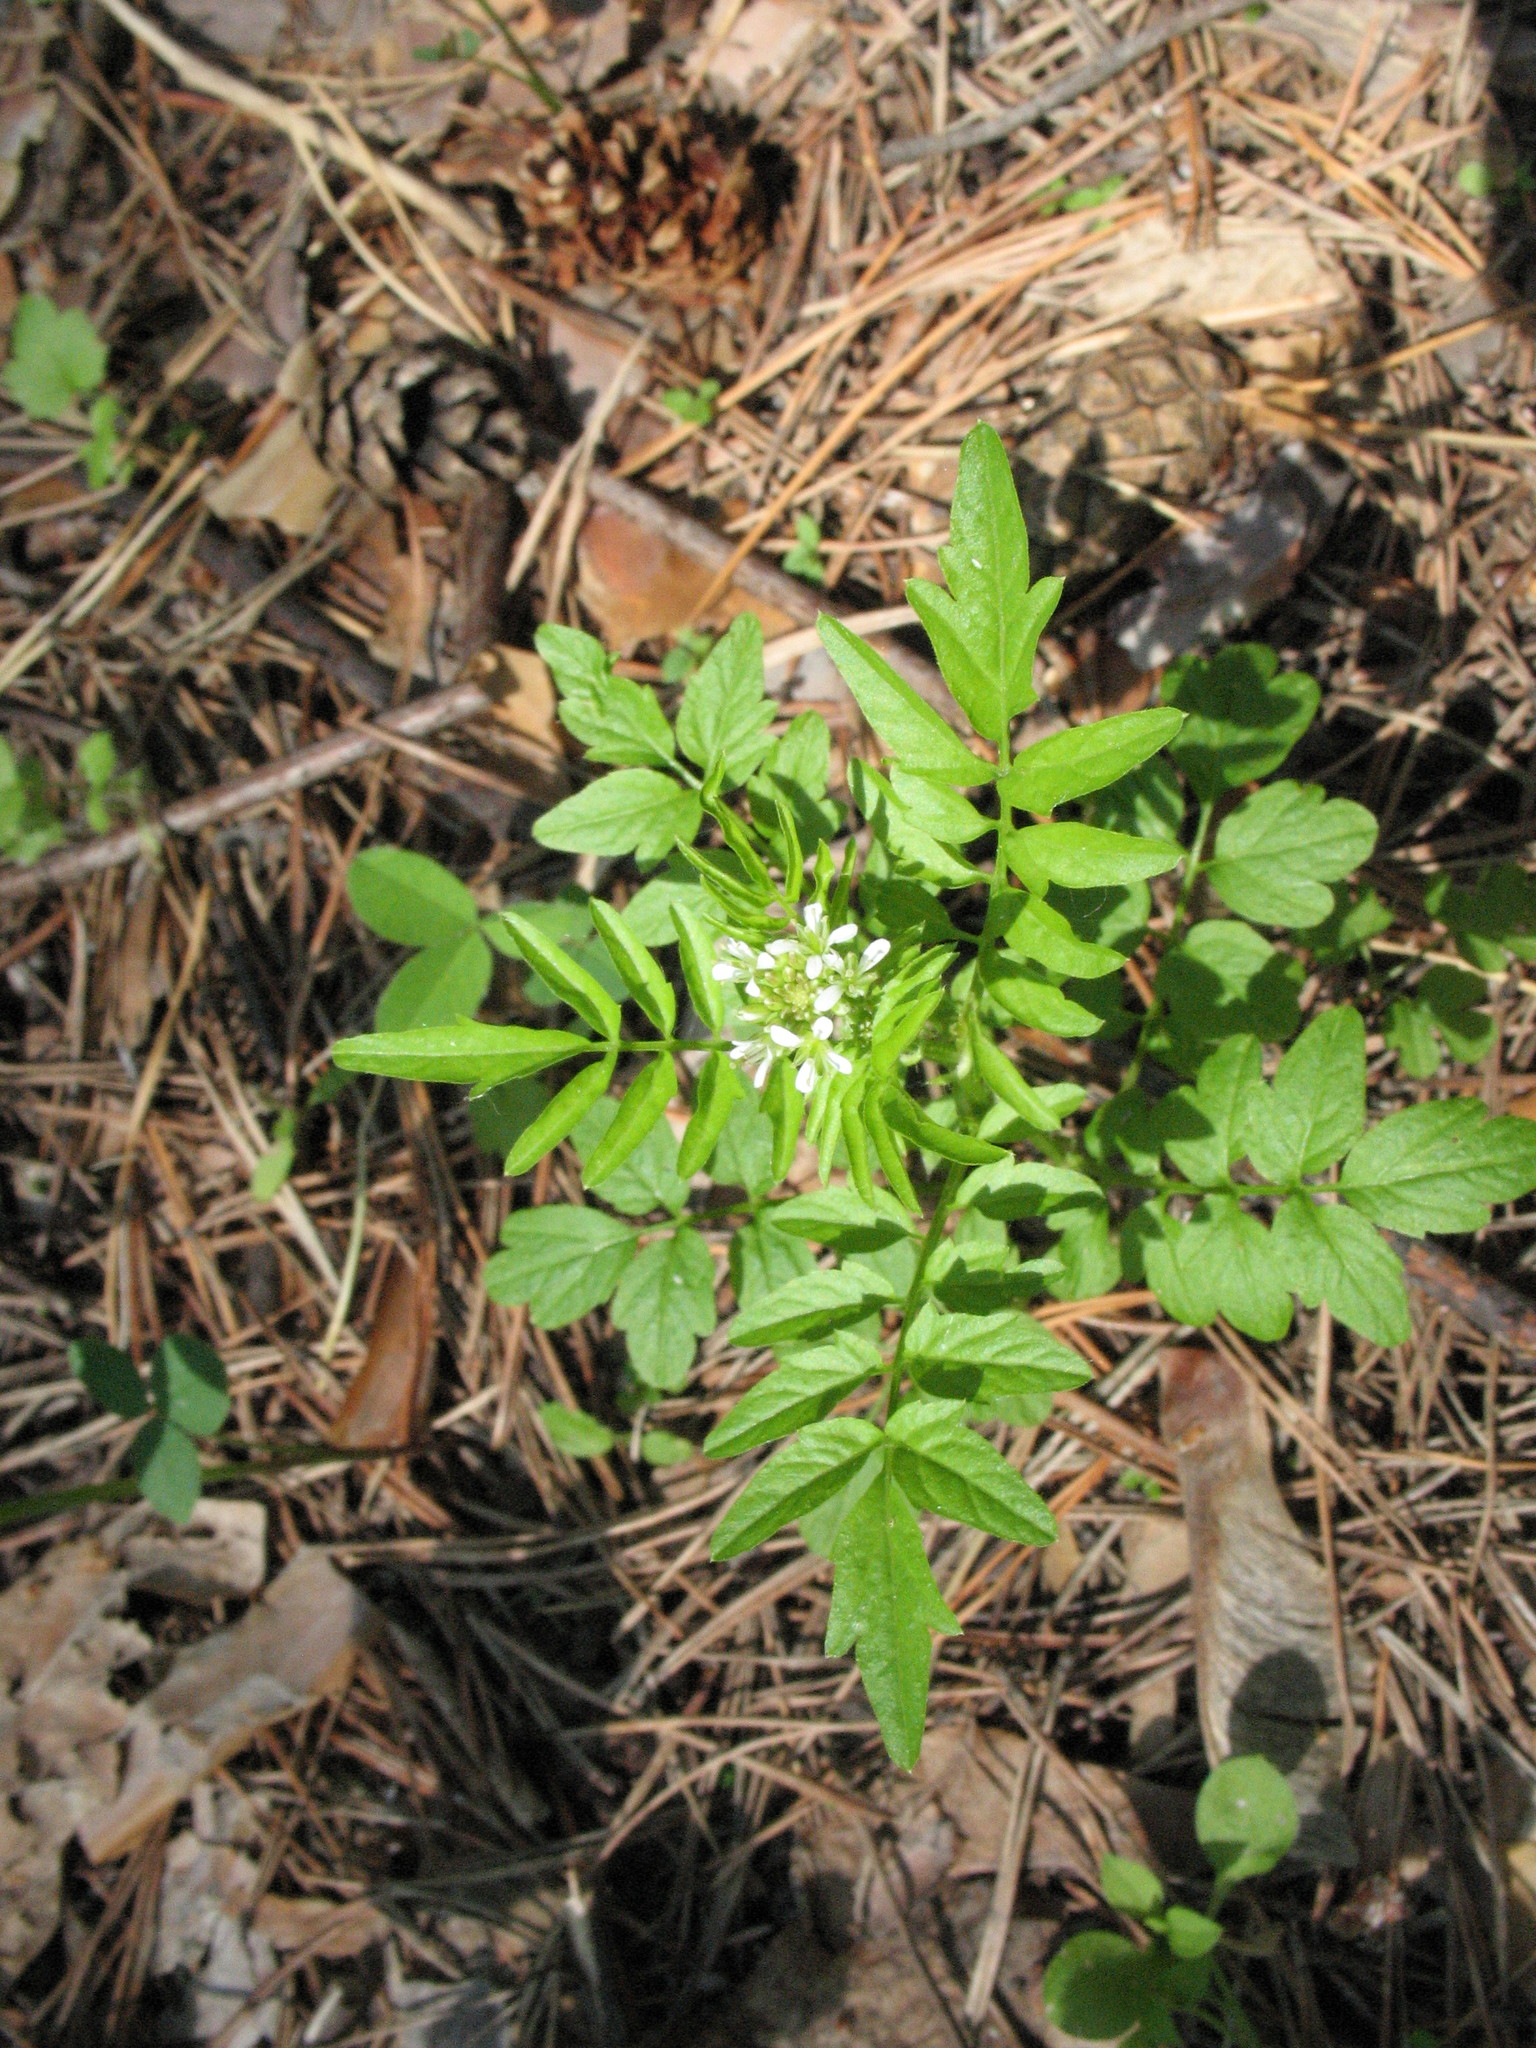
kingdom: Plantae
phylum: Tracheophyta
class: Magnoliopsida
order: Brassicales
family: Brassicaceae
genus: Cardamine
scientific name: Cardamine impatiens
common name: Narrow-leaved bitter-cress
